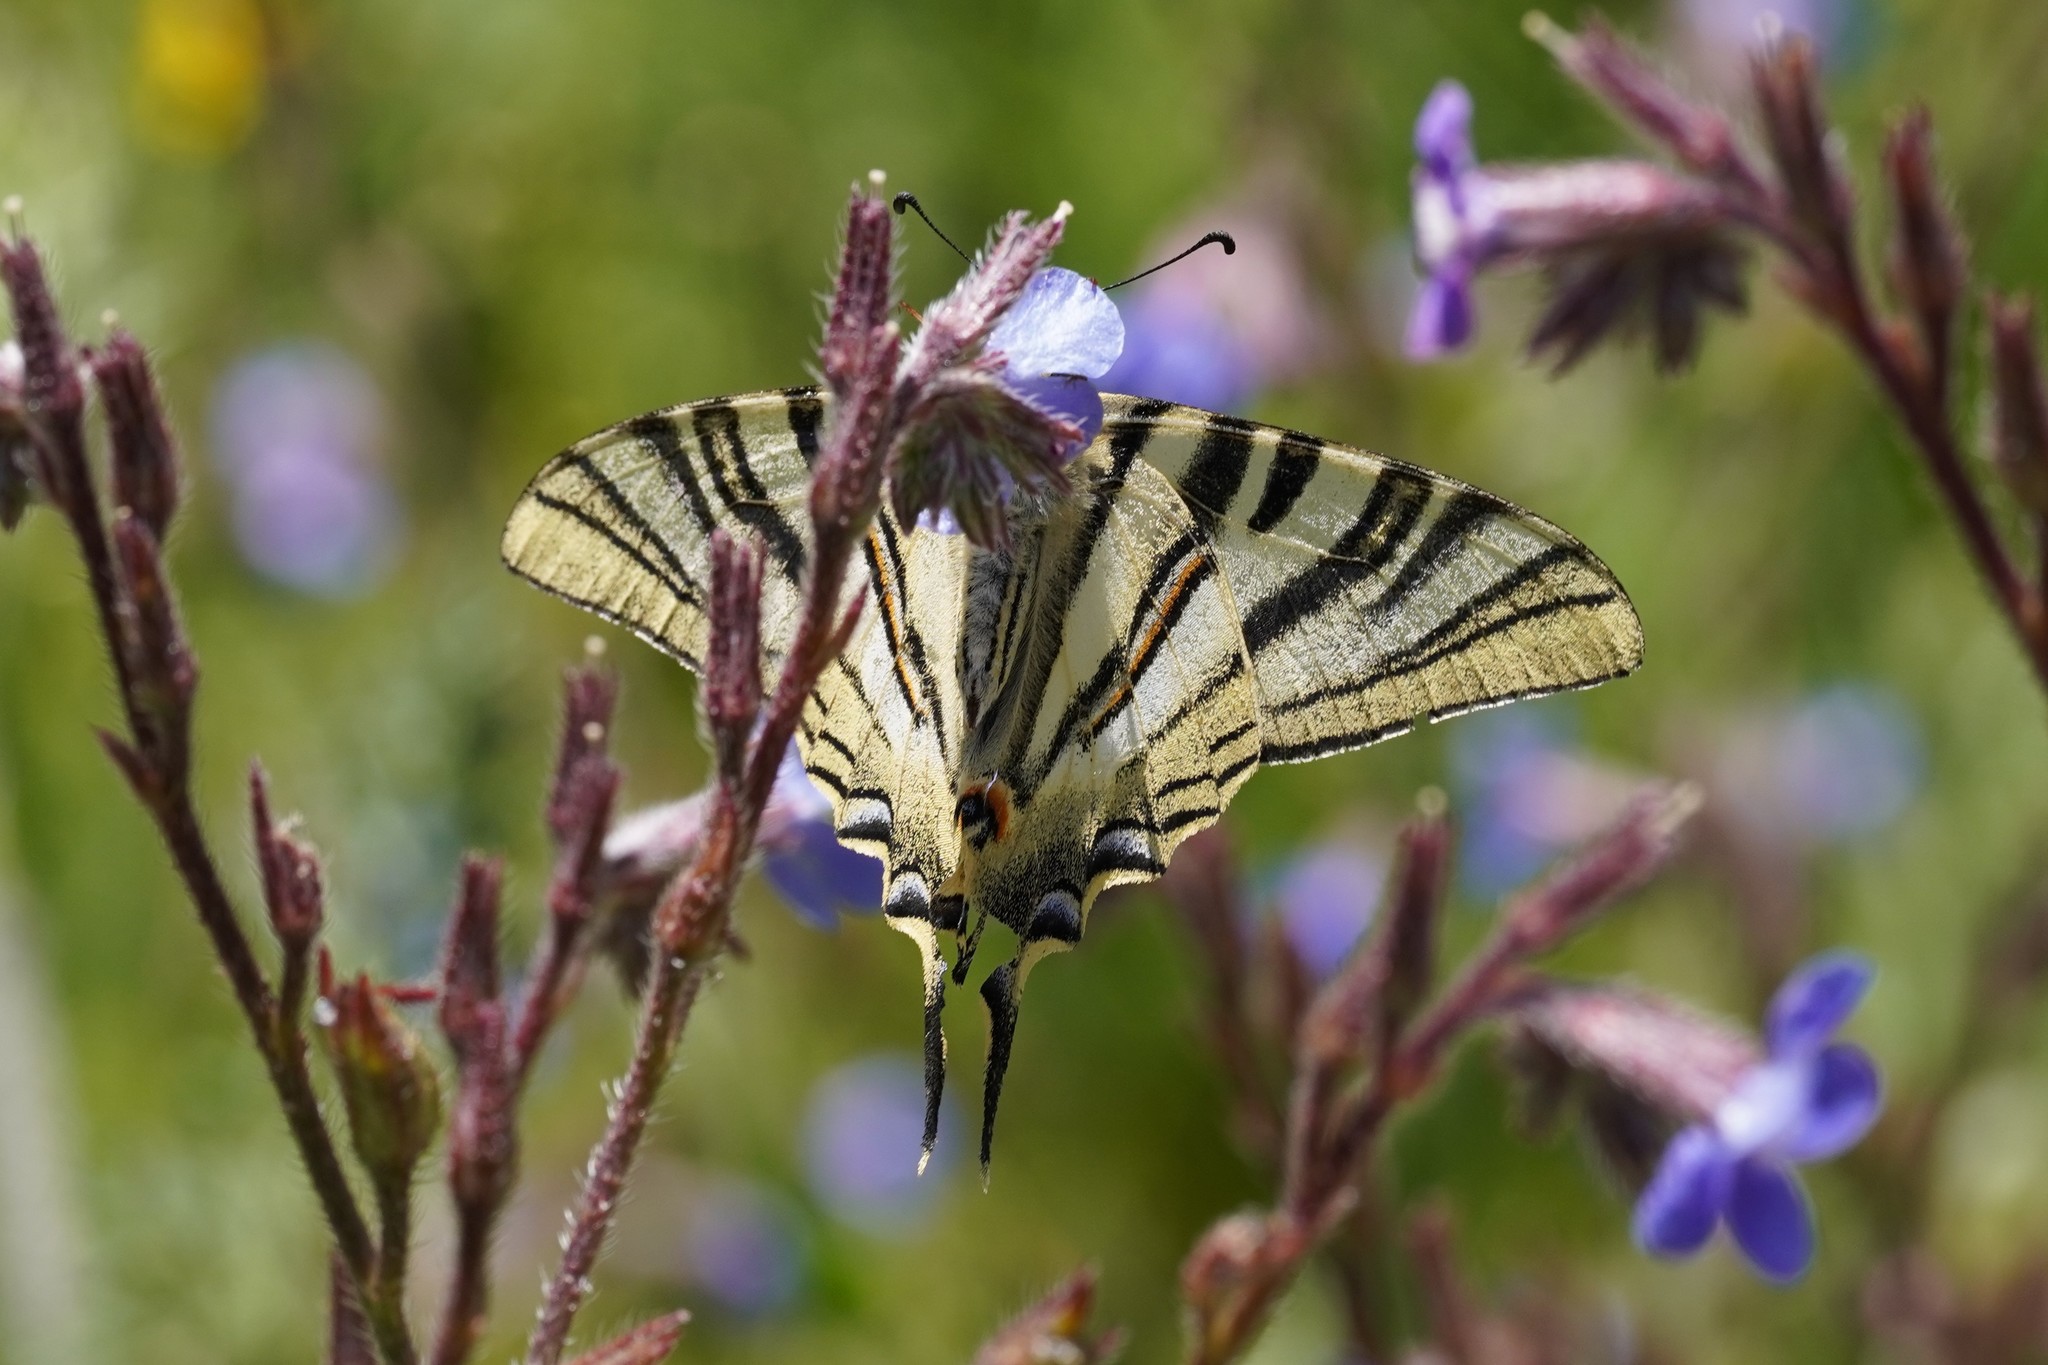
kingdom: Animalia
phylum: Arthropoda
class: Insecta
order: Lepidoptera
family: Papilionidae
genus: Iphiclides
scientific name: Iphiclides feisthamelii
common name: Iberian scarce swallowtail
